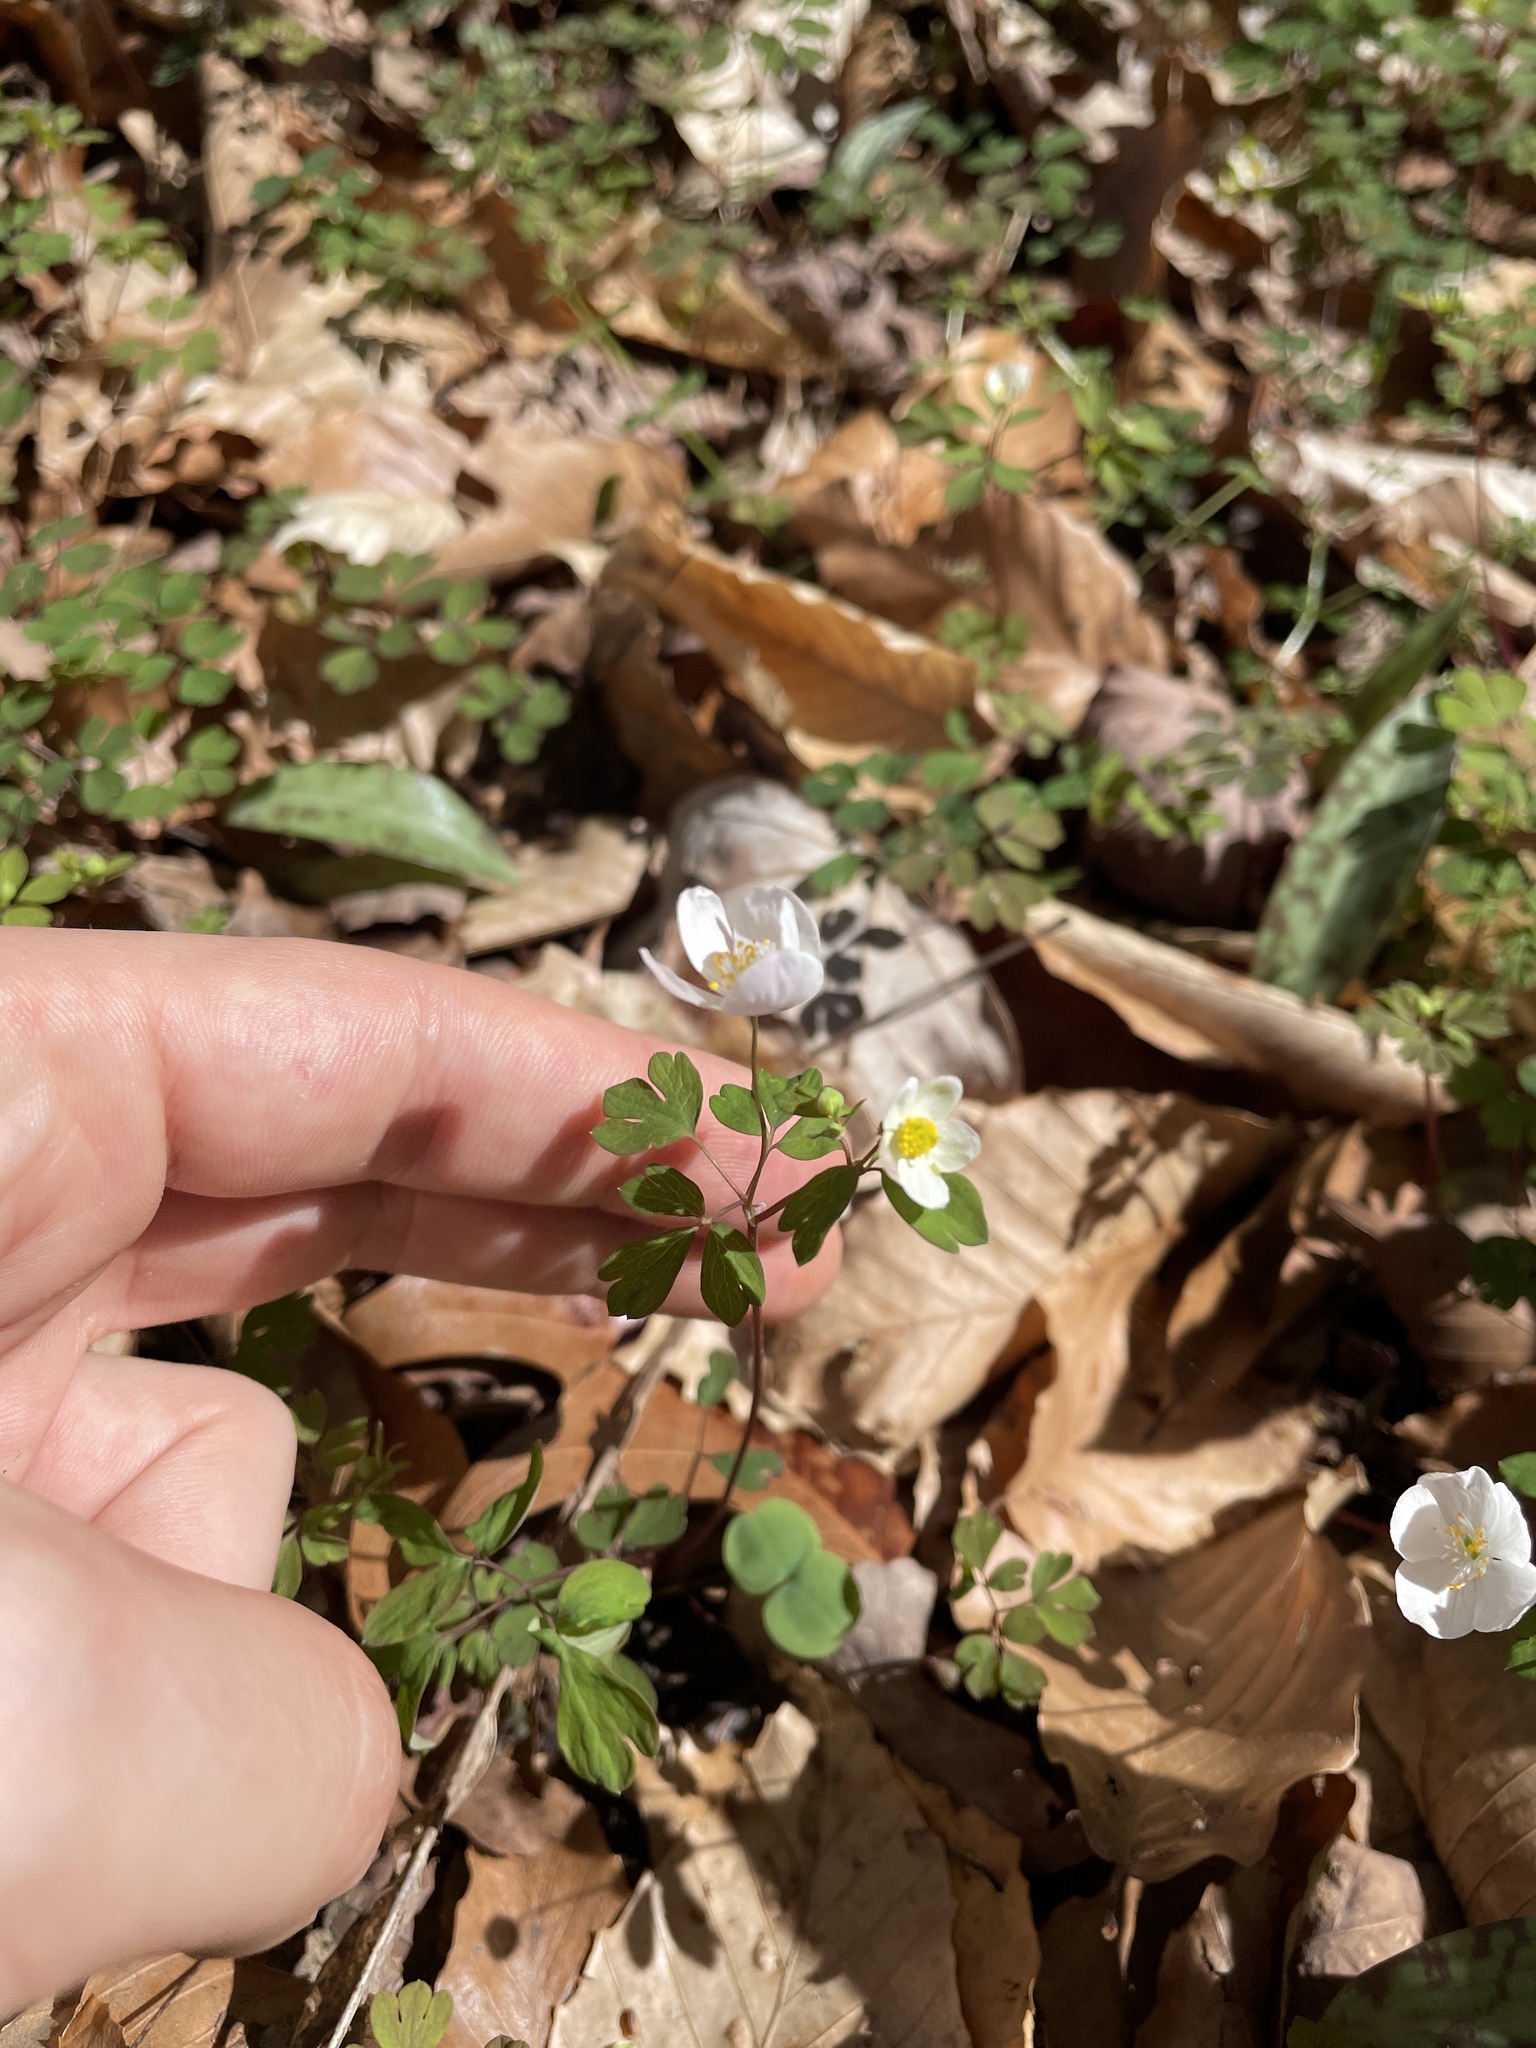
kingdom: Plantae
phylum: Tracheophyta
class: Magnoliopsida
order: Ranunculales
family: Ranunculaceae
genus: Enemion
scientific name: Enemion biternatum
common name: Eastern false rue-anemone
